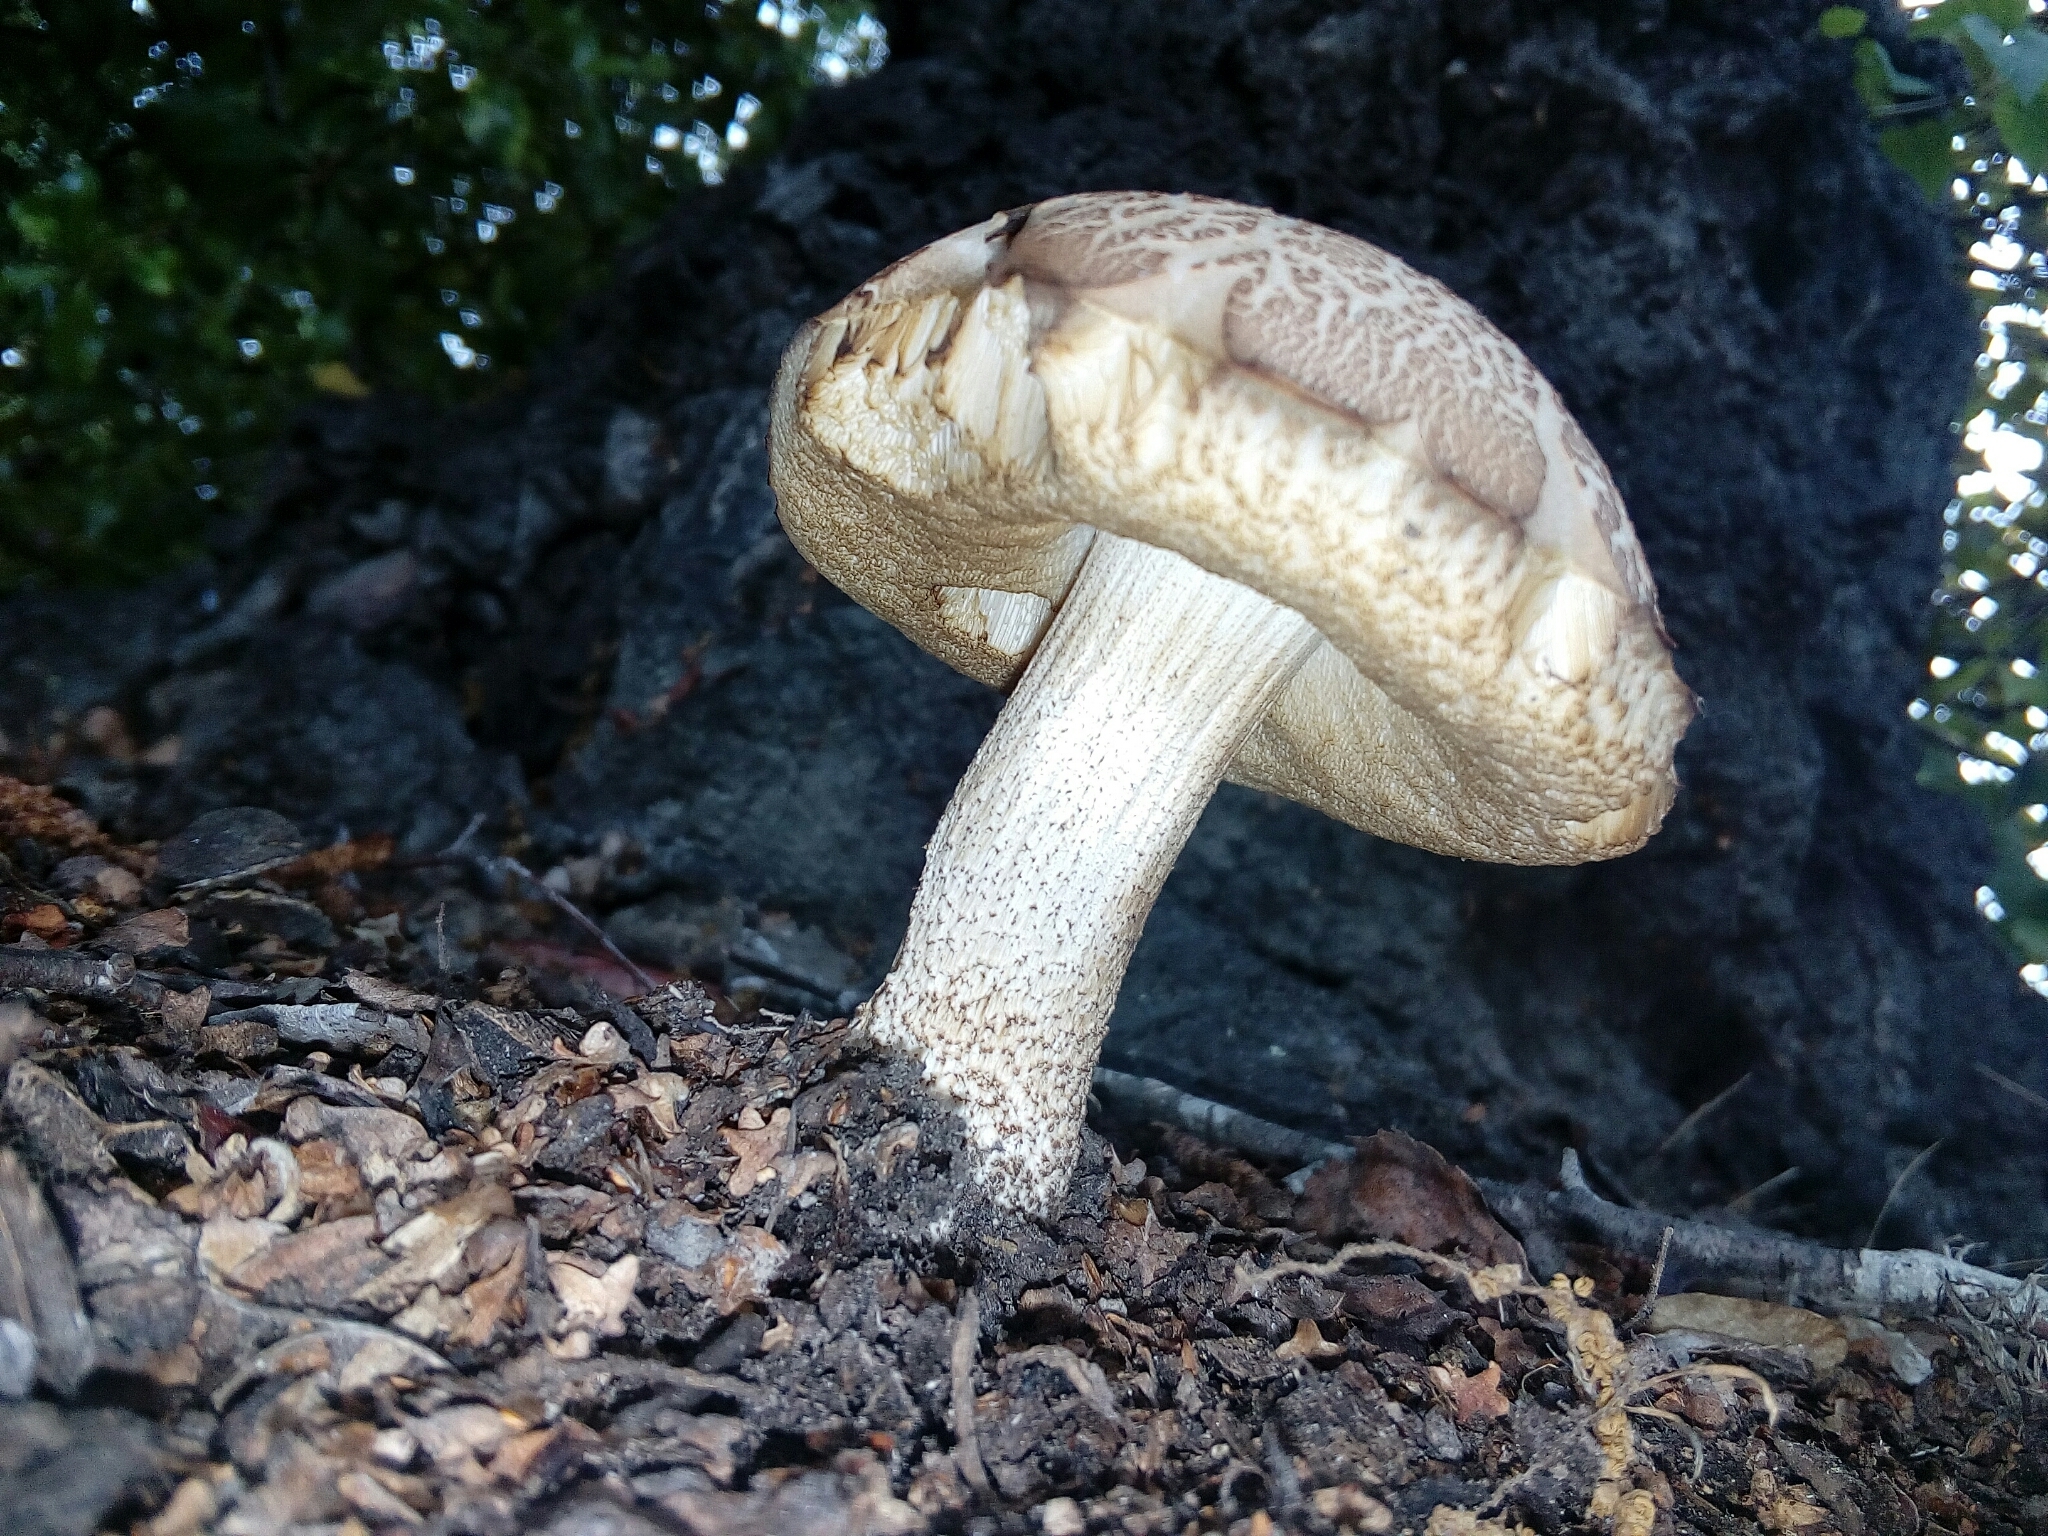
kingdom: Fungi
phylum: Basidiomycota
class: Agaricomycetes
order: Boletales
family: Boletaceae
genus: Leccinum
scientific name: Leccinum scabrum
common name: Blushing bolete
